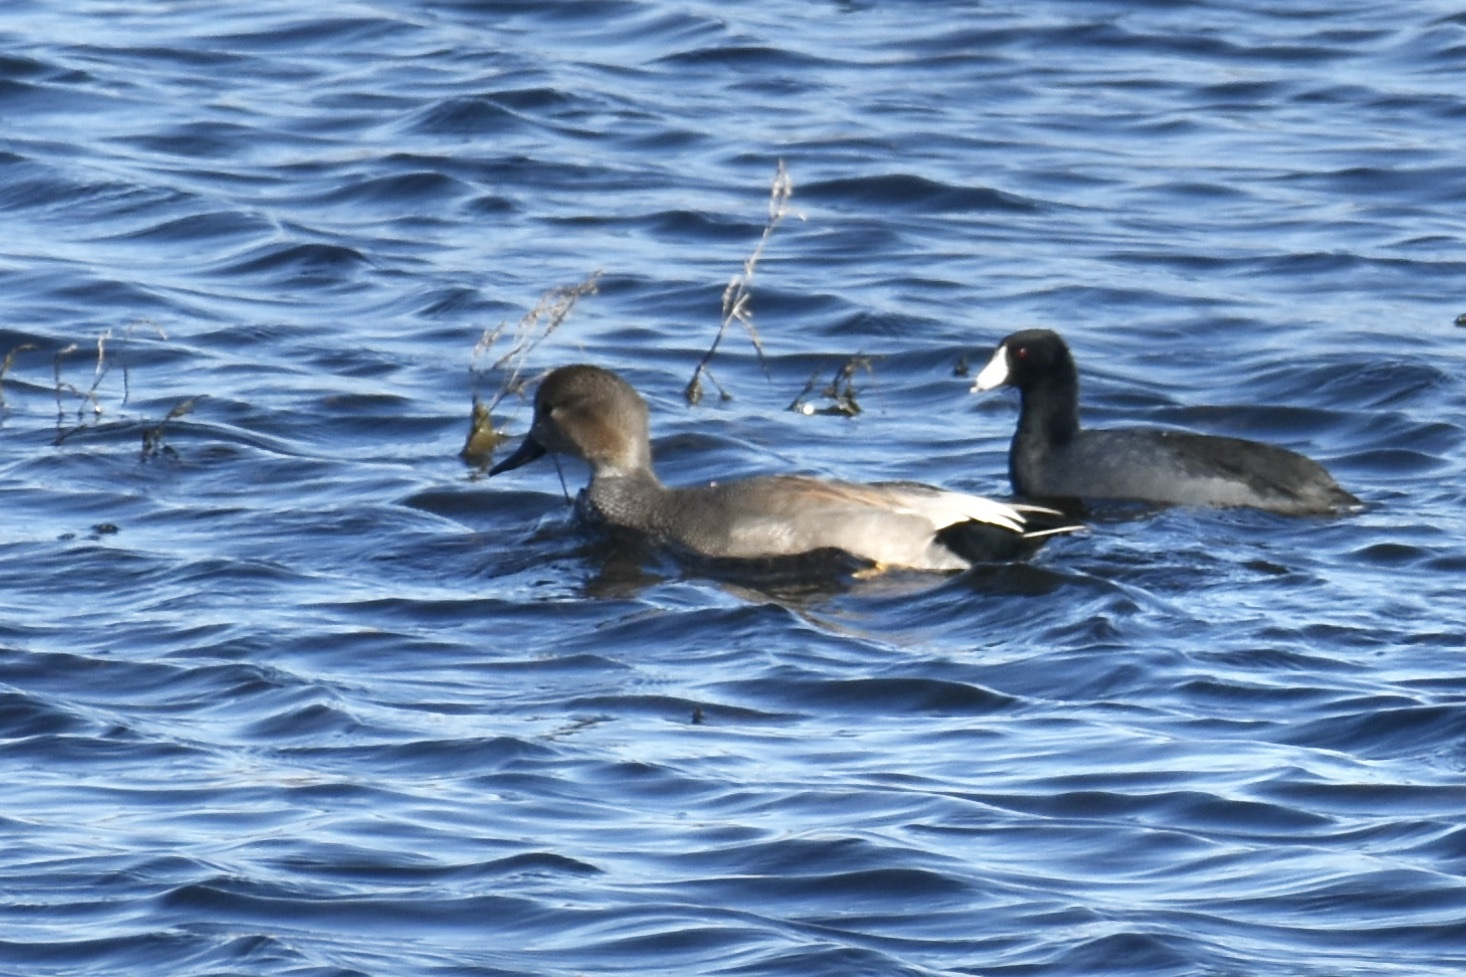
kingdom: Animalia
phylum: Chordata
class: Aves
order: Anseriformes
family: Anatidae
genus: Mareca
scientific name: Mareca strepera
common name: Gadwall
